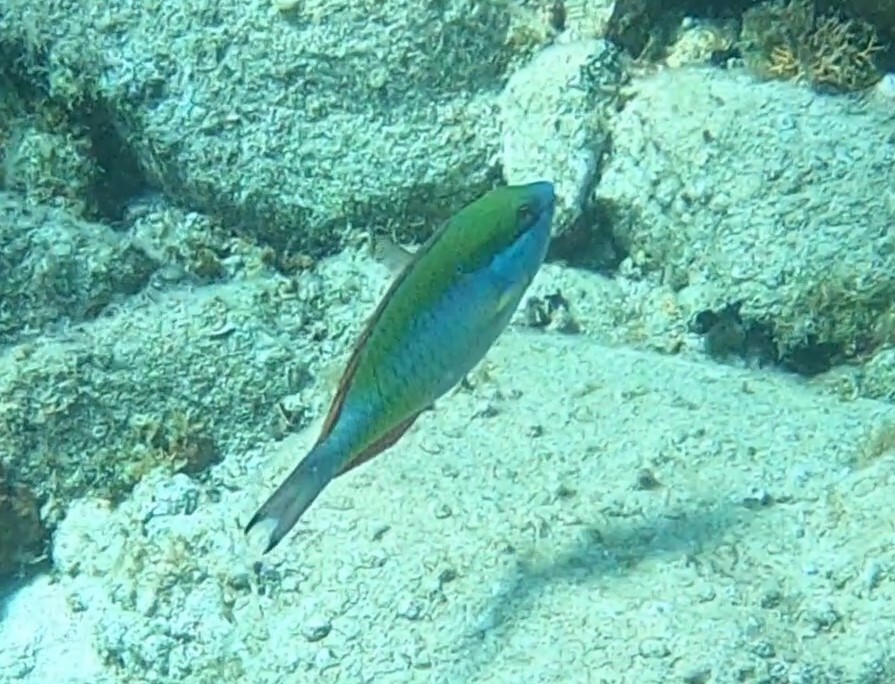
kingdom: Animalia
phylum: Chordata
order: Perciformes
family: Scaridae
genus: Sparisoma
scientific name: Sparisoma aurofrenatum
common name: Redband parrotfish
